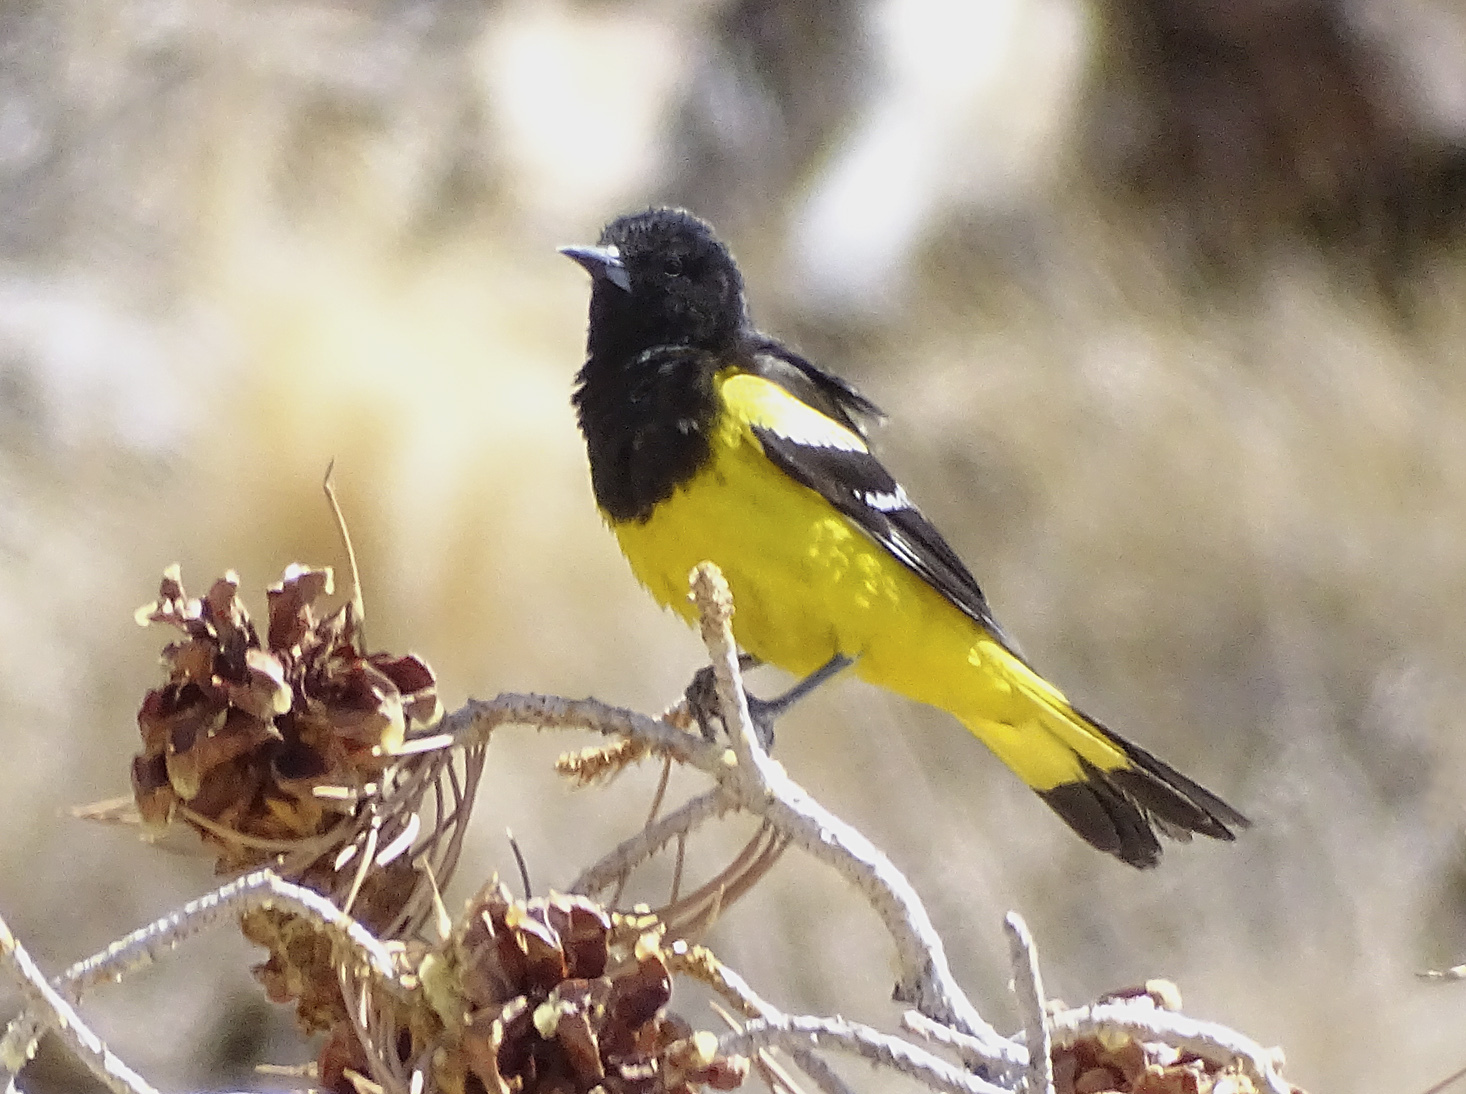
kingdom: Animalia
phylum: Chordata
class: Aves
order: Passeriformes
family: Icteridae
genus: Icterus
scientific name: Icterus parisorum
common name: Scott's oriole
